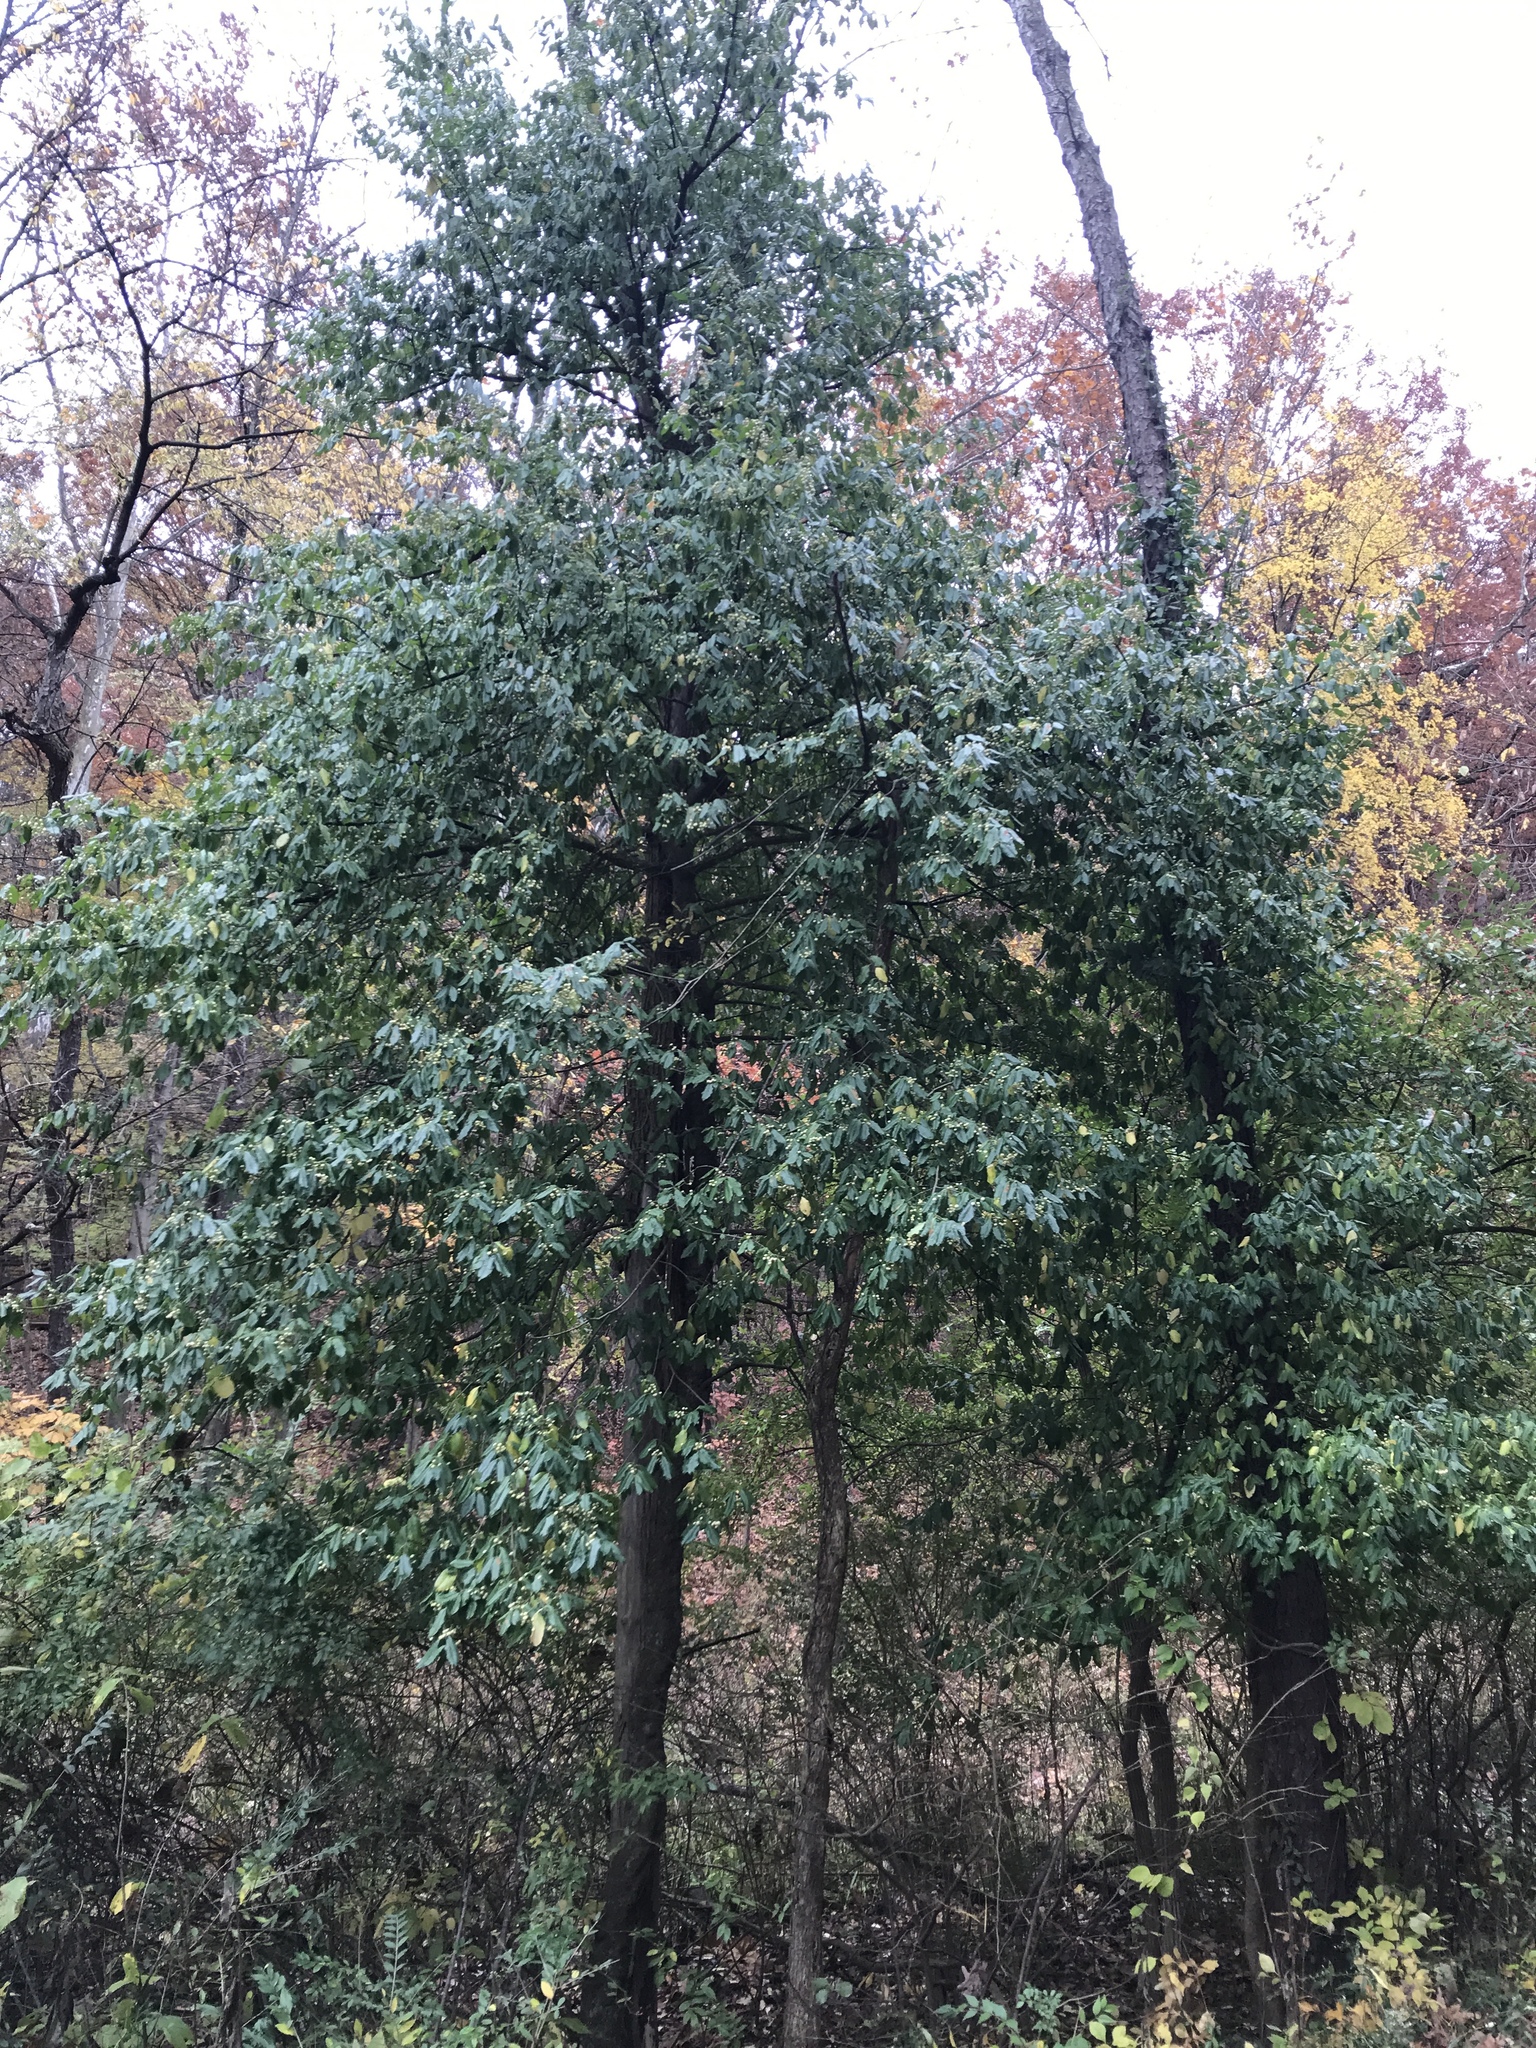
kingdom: Plantae
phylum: Tracheophyta
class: Magnoliopsida
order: Celastrales
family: Celastraceae
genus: Euonymus
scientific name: Euonymus fortunei
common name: Climbing euonymus
